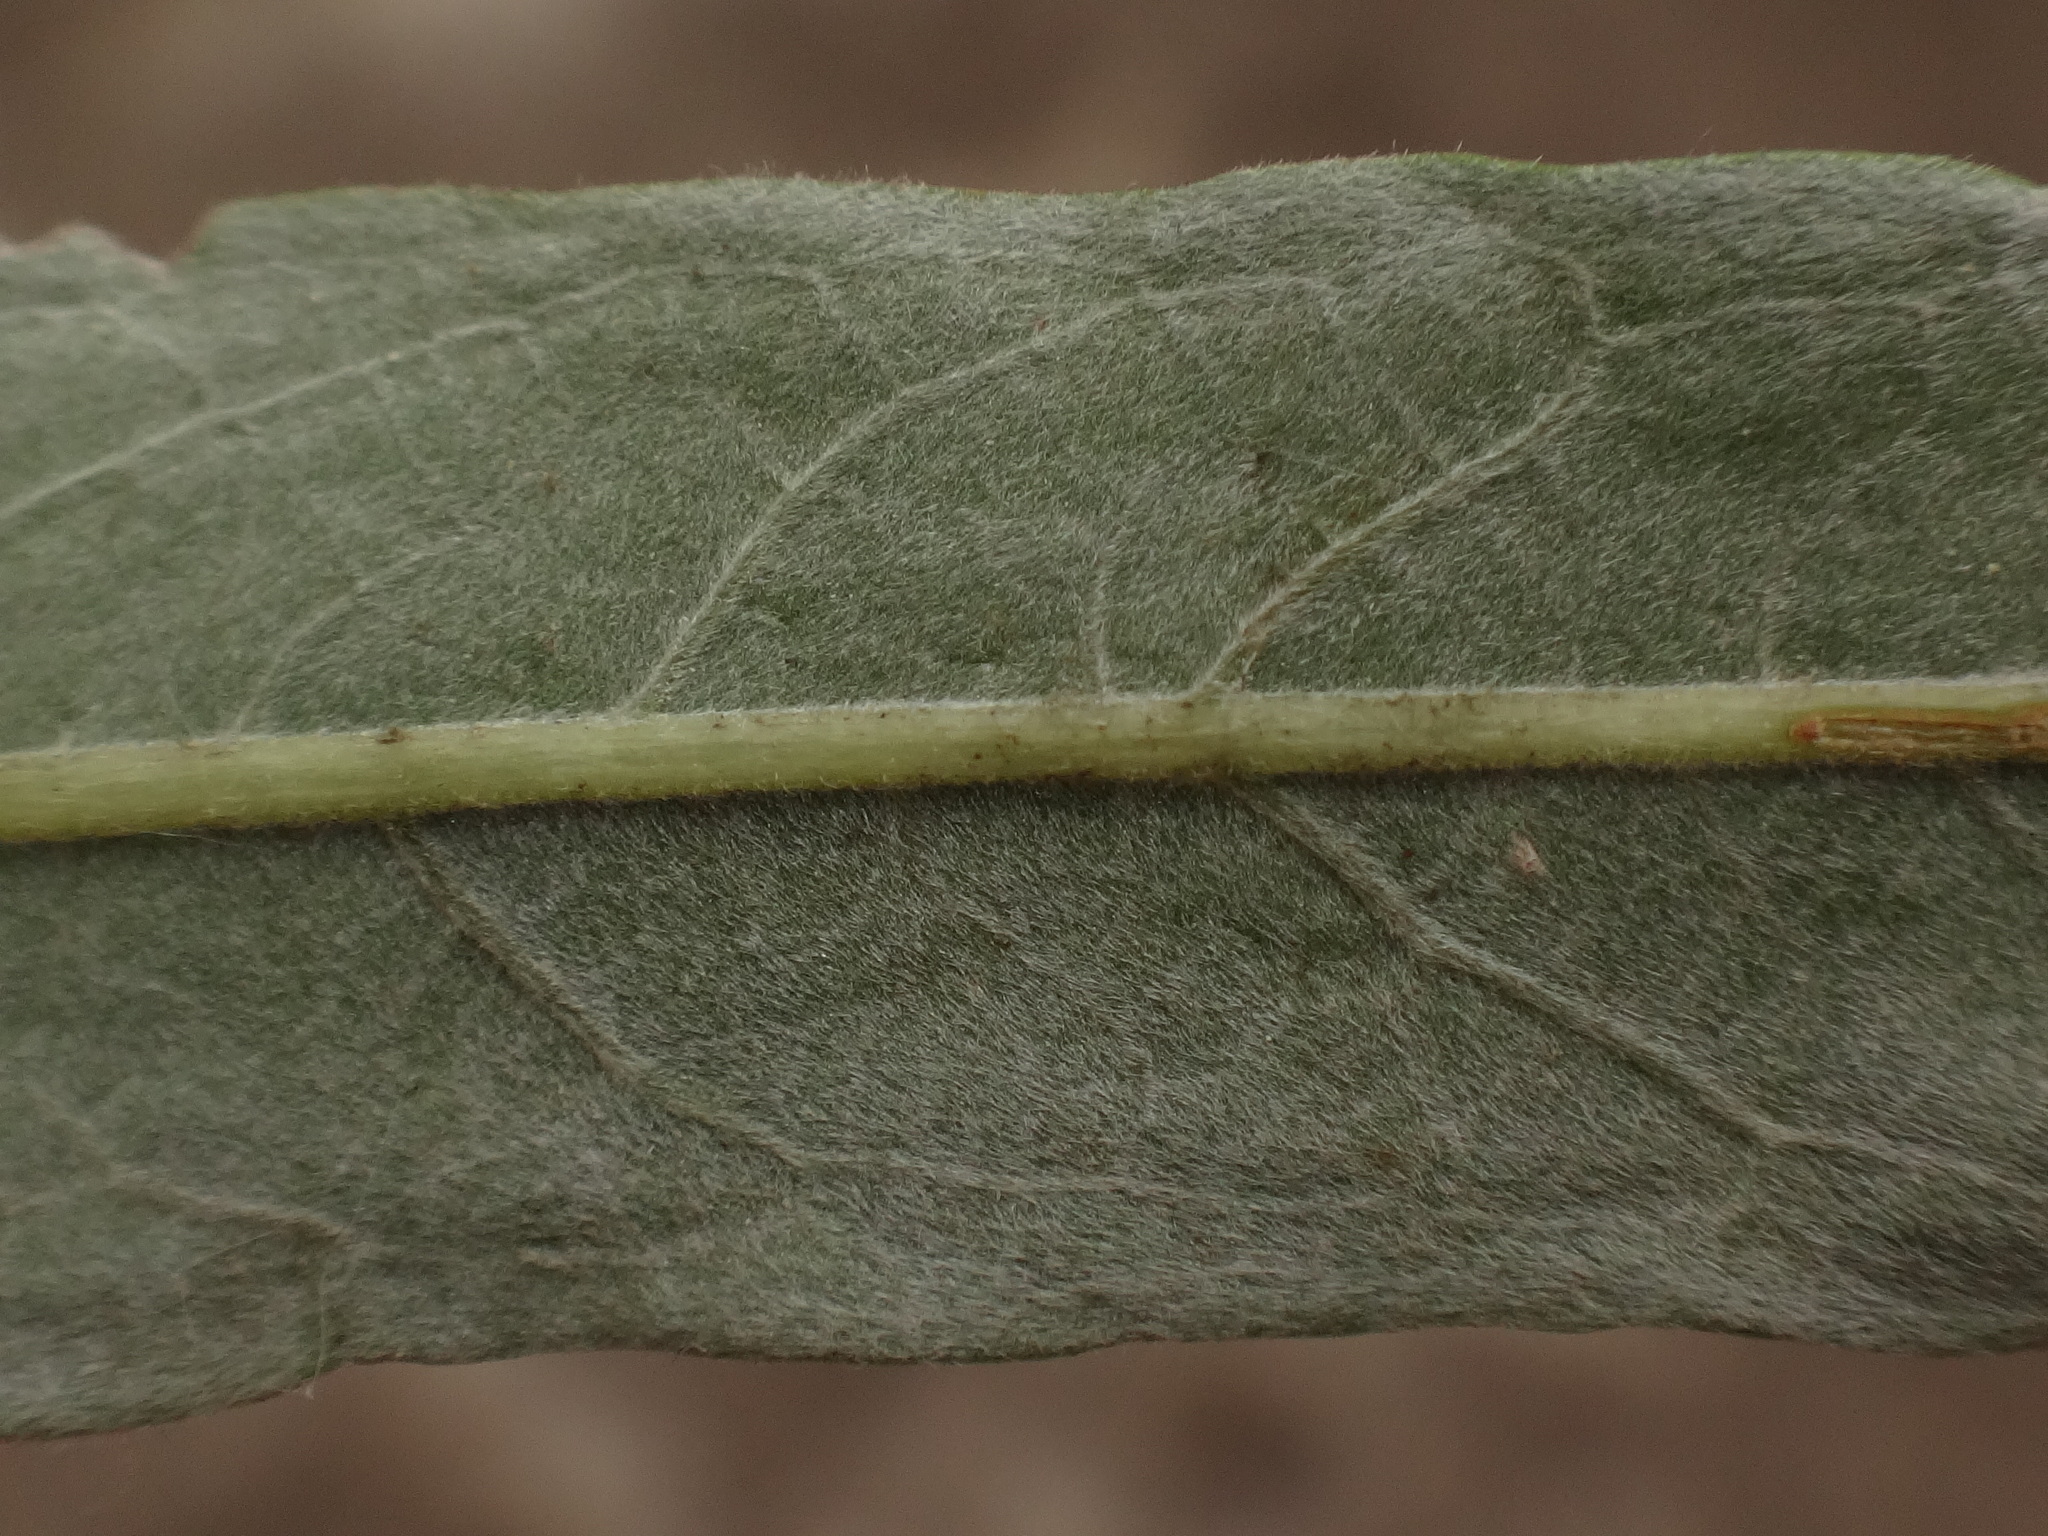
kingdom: Plantae
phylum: Tracheophyta
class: Magnoliopsida
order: Malpighiales
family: Salicaceae
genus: Salix
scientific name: Salix viminalis
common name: Osier
